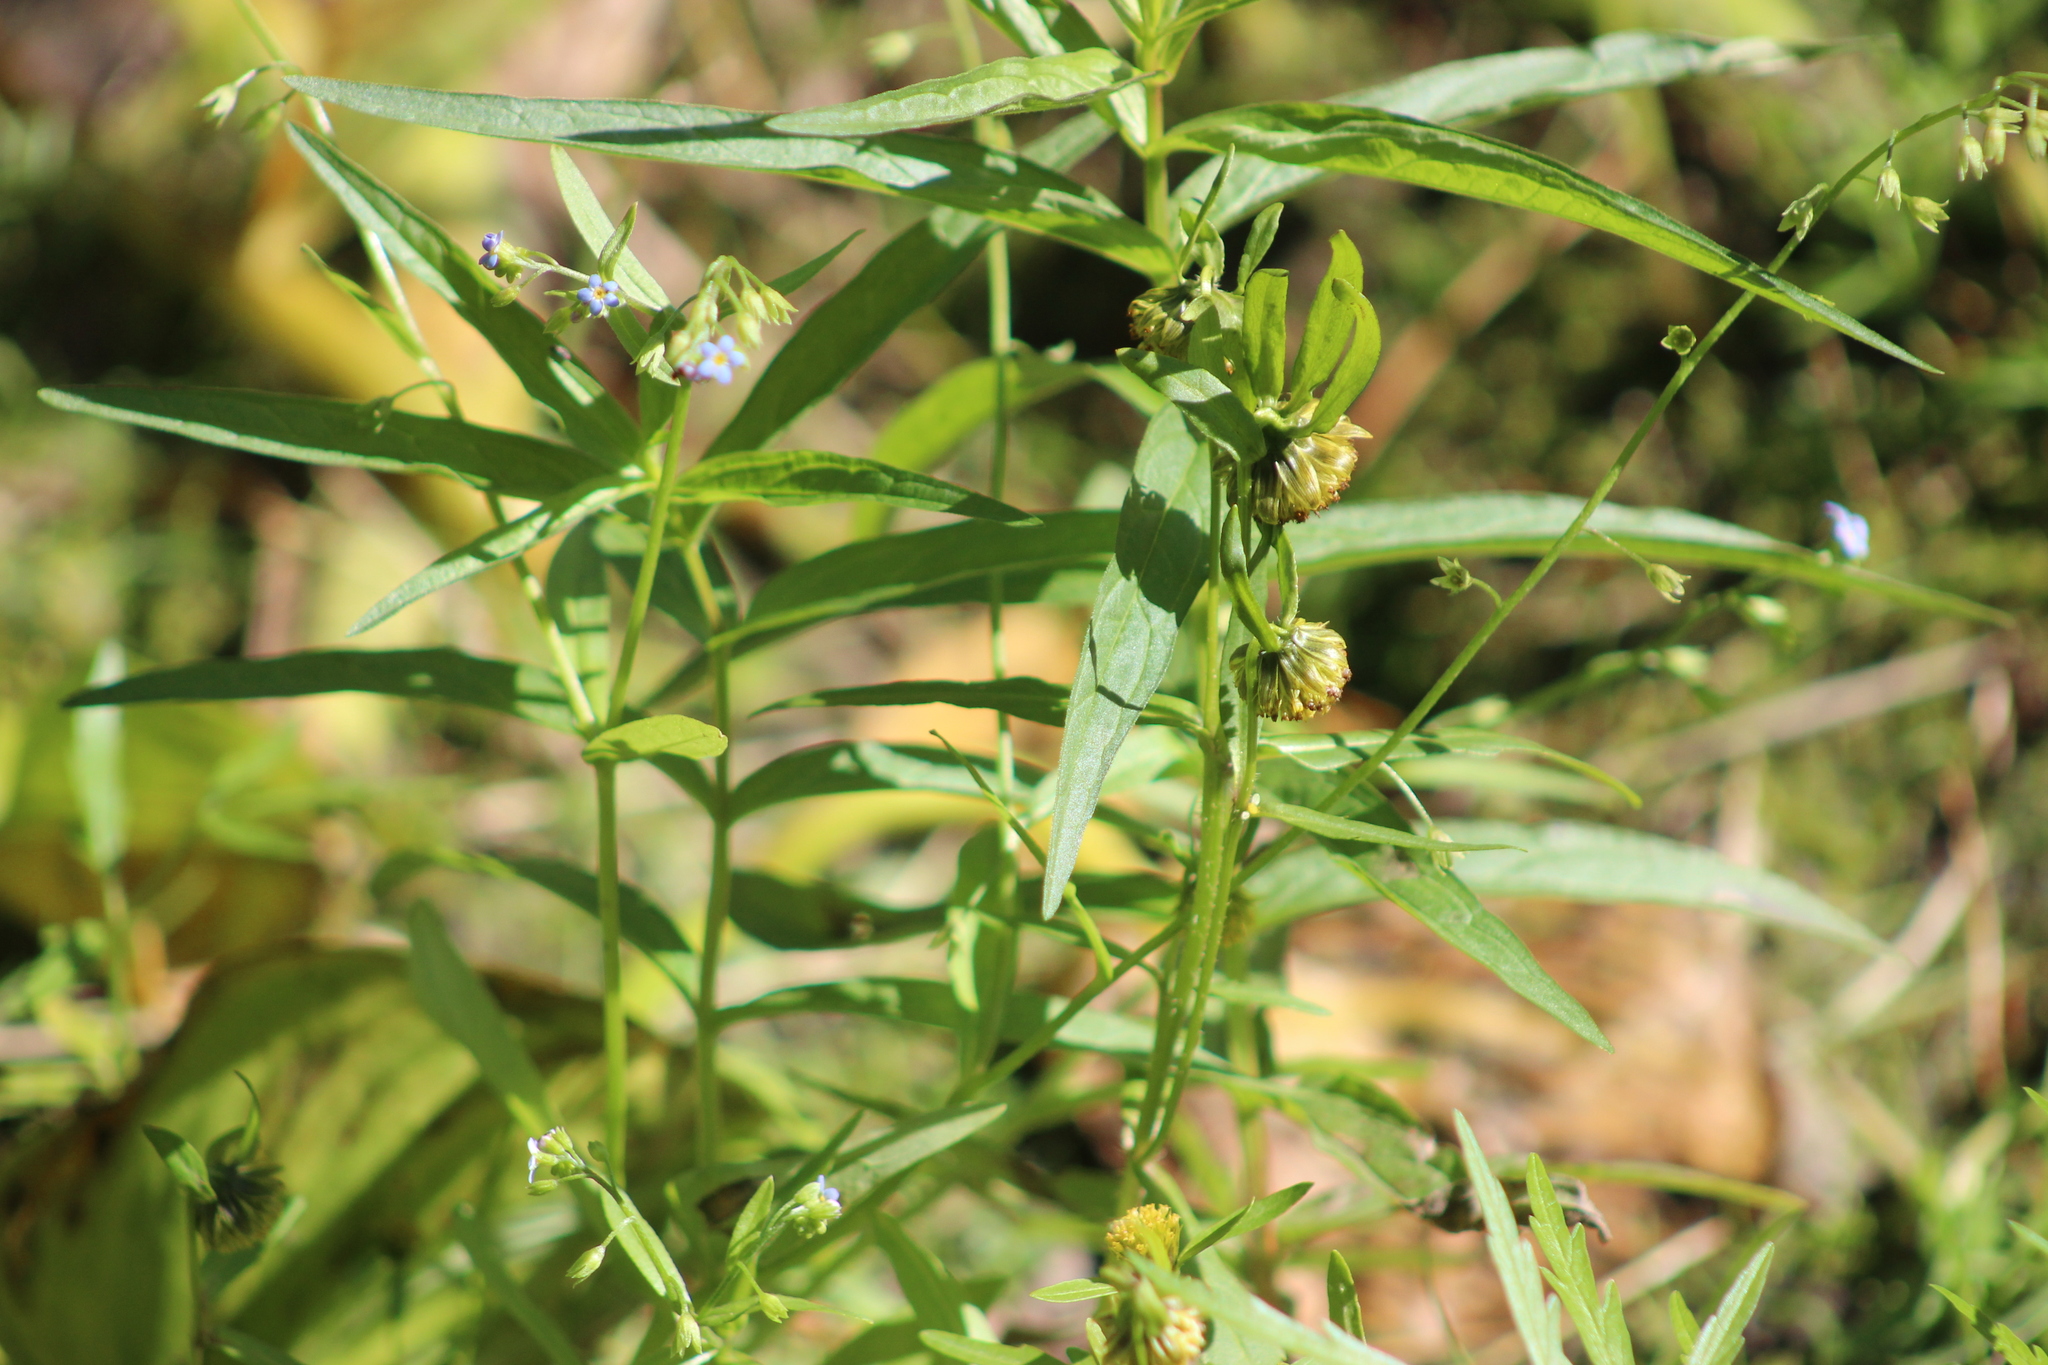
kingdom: Plantae
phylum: Tracheophyta
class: Magnoliopsida
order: Asterales
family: Asteraceae
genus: Bidens
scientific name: Bidens cernua
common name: Nodding bur-marigold
